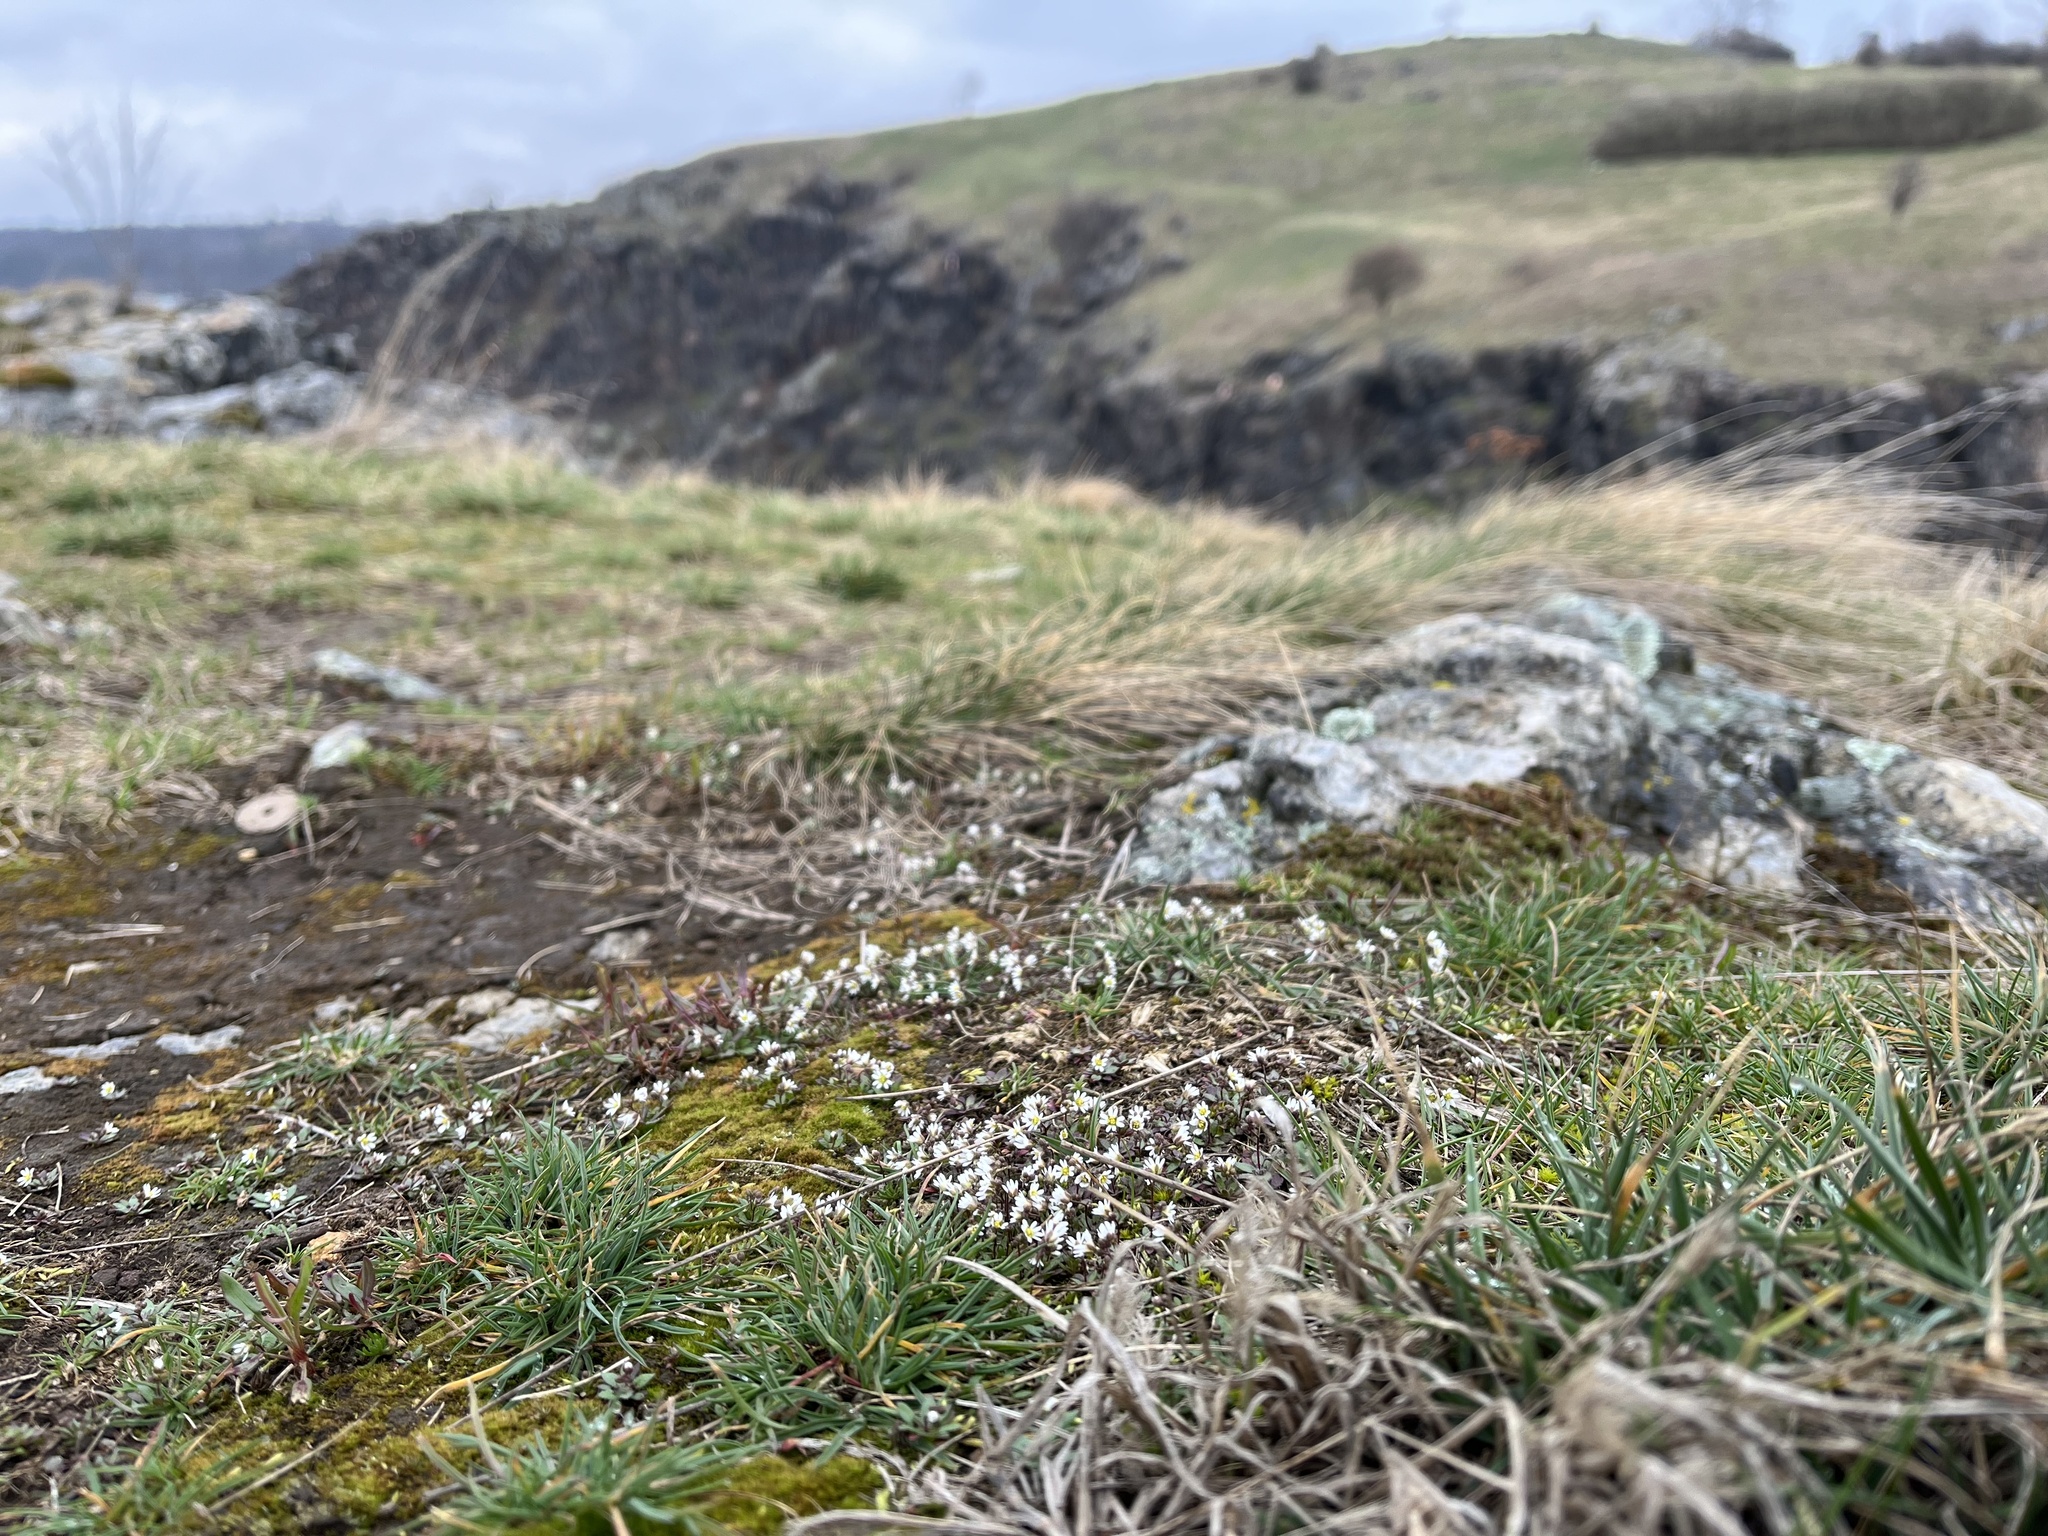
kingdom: Plantae
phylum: Tracheophyta
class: Magnoliopsida
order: Brassicales
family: Brassicaceae
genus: Draba
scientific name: Draba verna
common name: Spring draba
